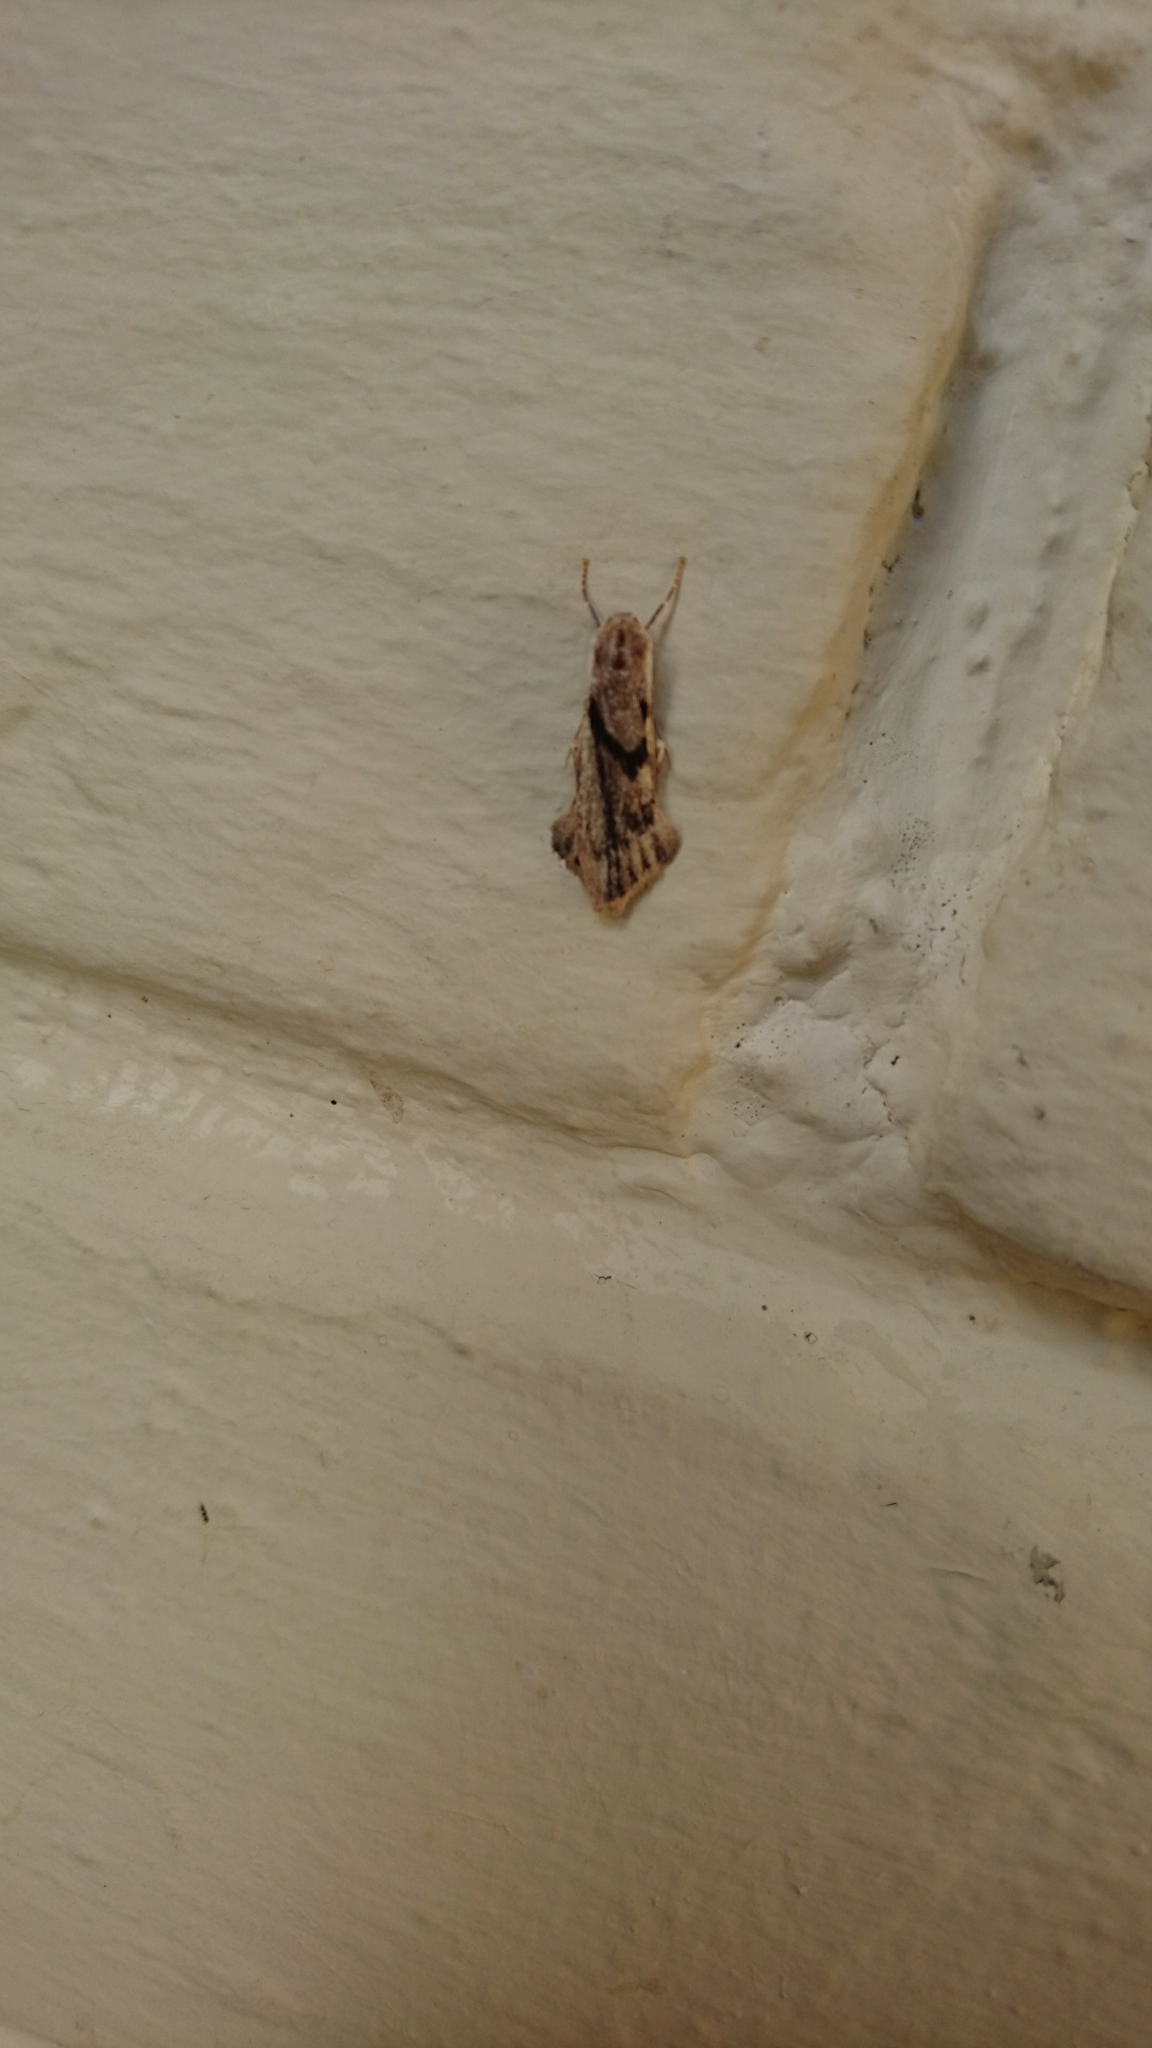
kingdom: Animalia
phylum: Arthropoda
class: Insecta
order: Lepidoptera
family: Erebidae
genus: Teulisna
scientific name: Teulisna
